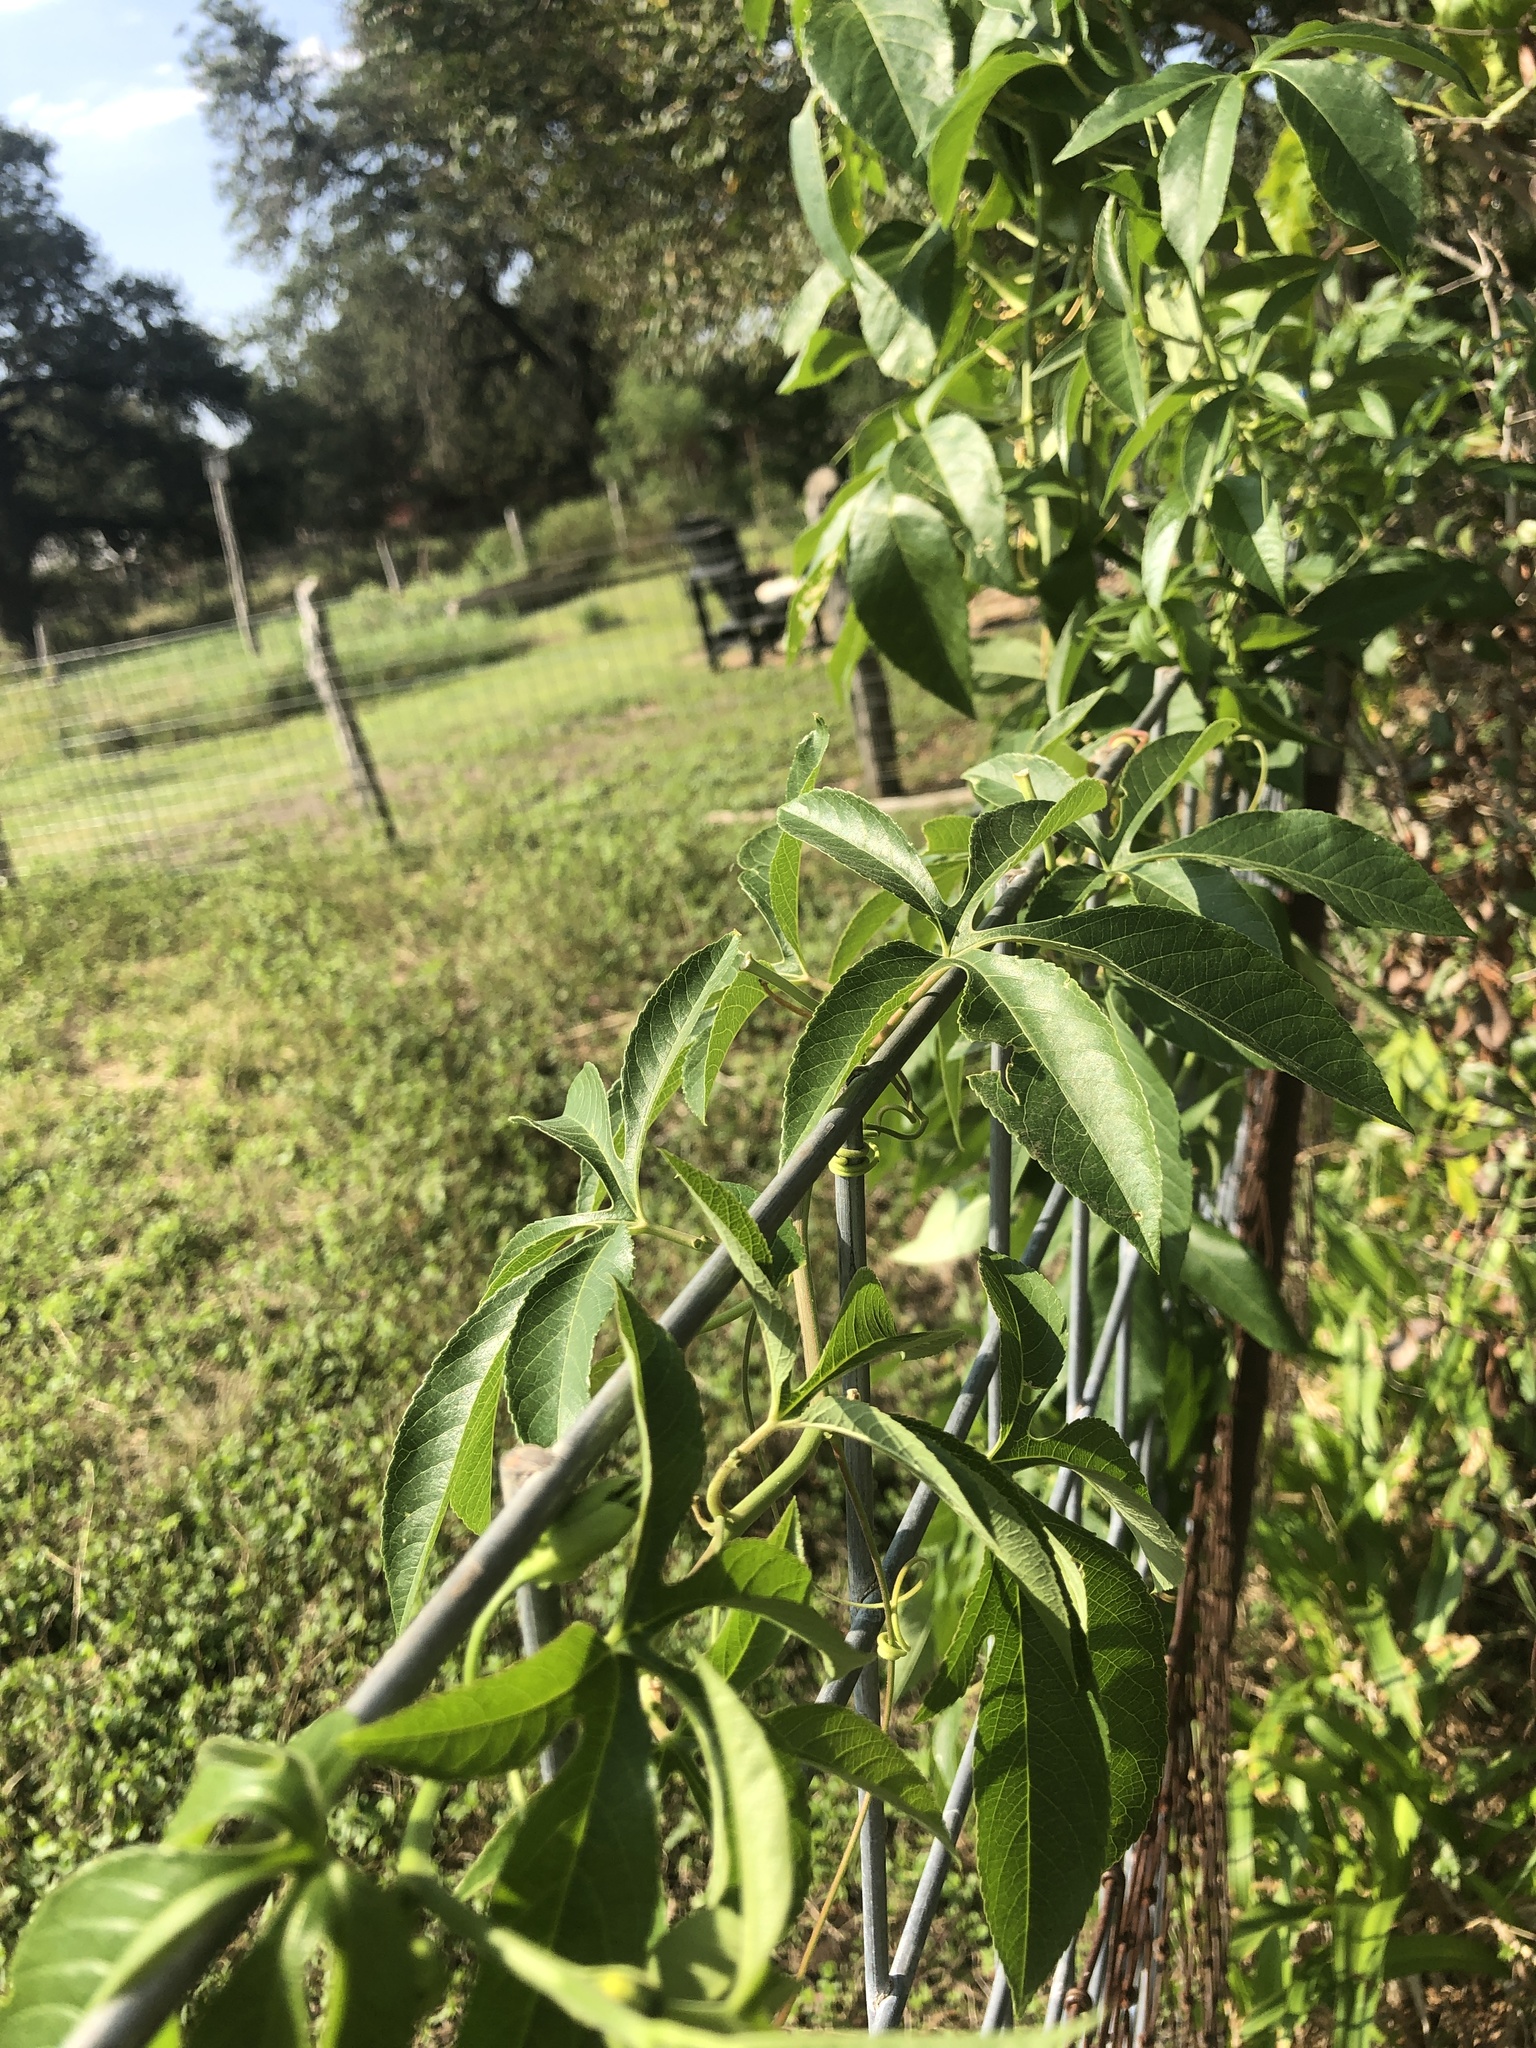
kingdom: Plantae
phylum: Tracheophyta
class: Magnoliopsida
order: Malpighiales
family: Passifloraceae
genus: Passiflora
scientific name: Passiflora
